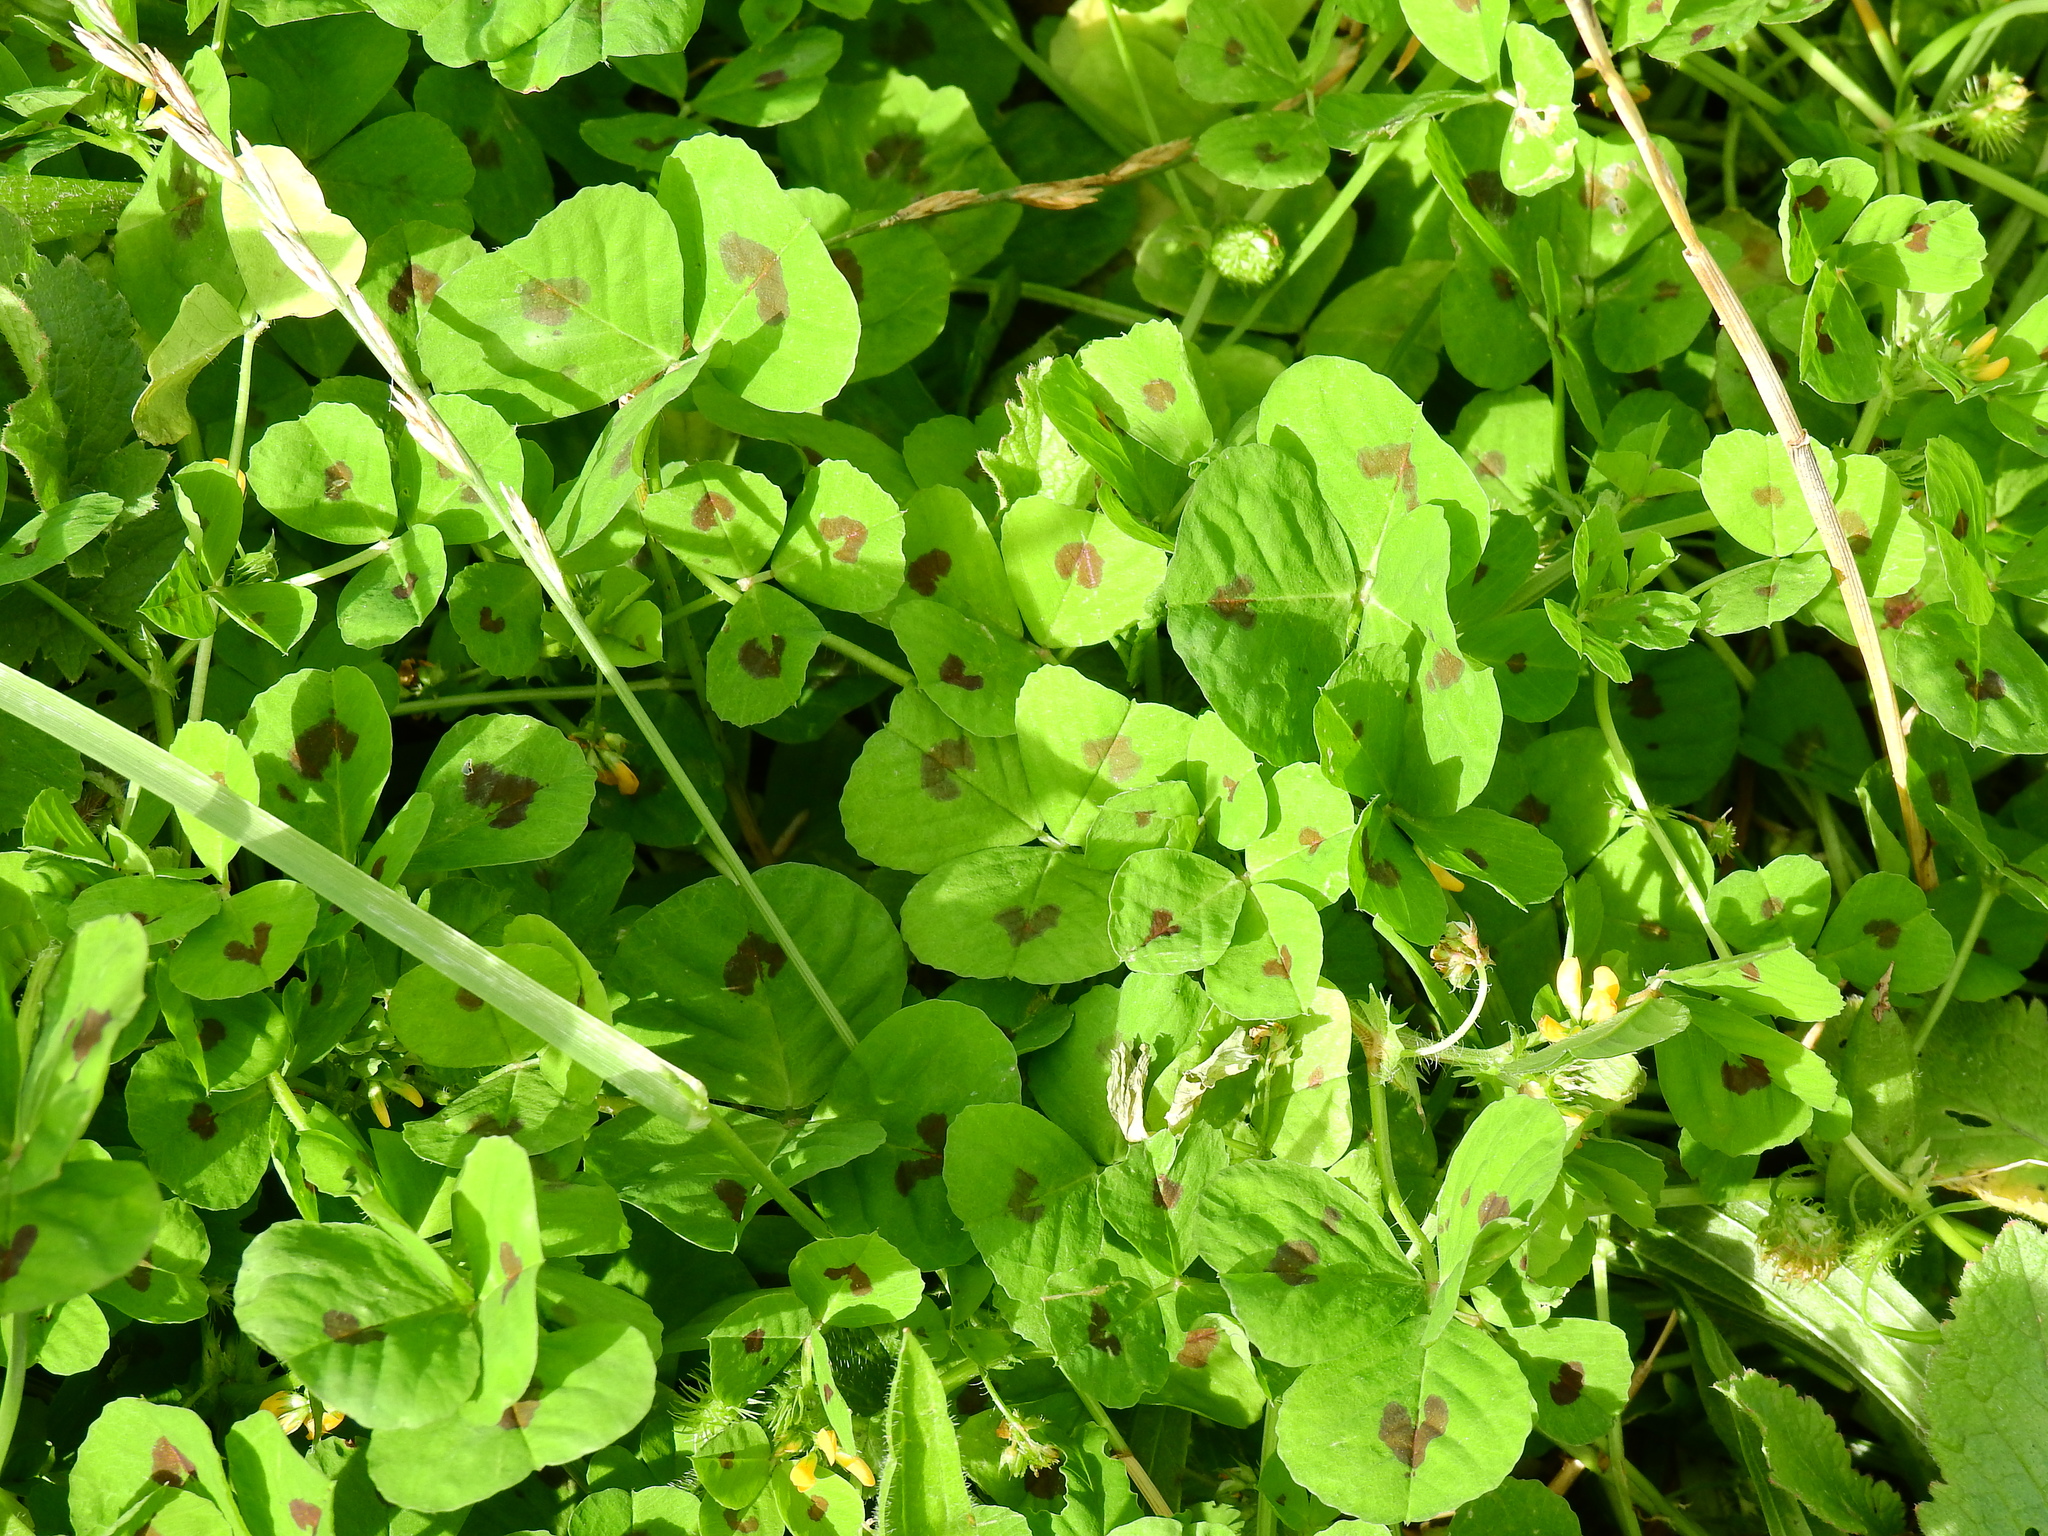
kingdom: Plantae
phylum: Tracheophyta
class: Magnoliopsida
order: Fabales
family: Fabaceae
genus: Medicago
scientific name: Medicago arabica
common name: Spotted medick
